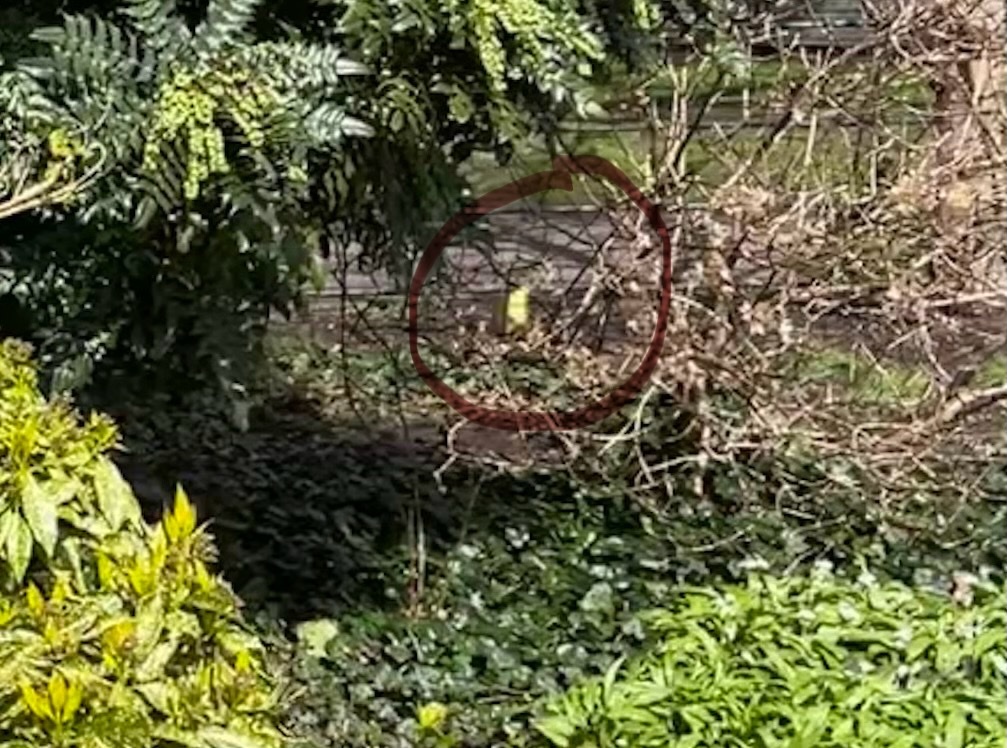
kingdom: Animalia
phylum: Arthropoda
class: Insecta
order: Lepidoptera
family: Pieridae
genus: Gonepteryx
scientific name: Gonepteryx rhamni
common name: Brimstone
